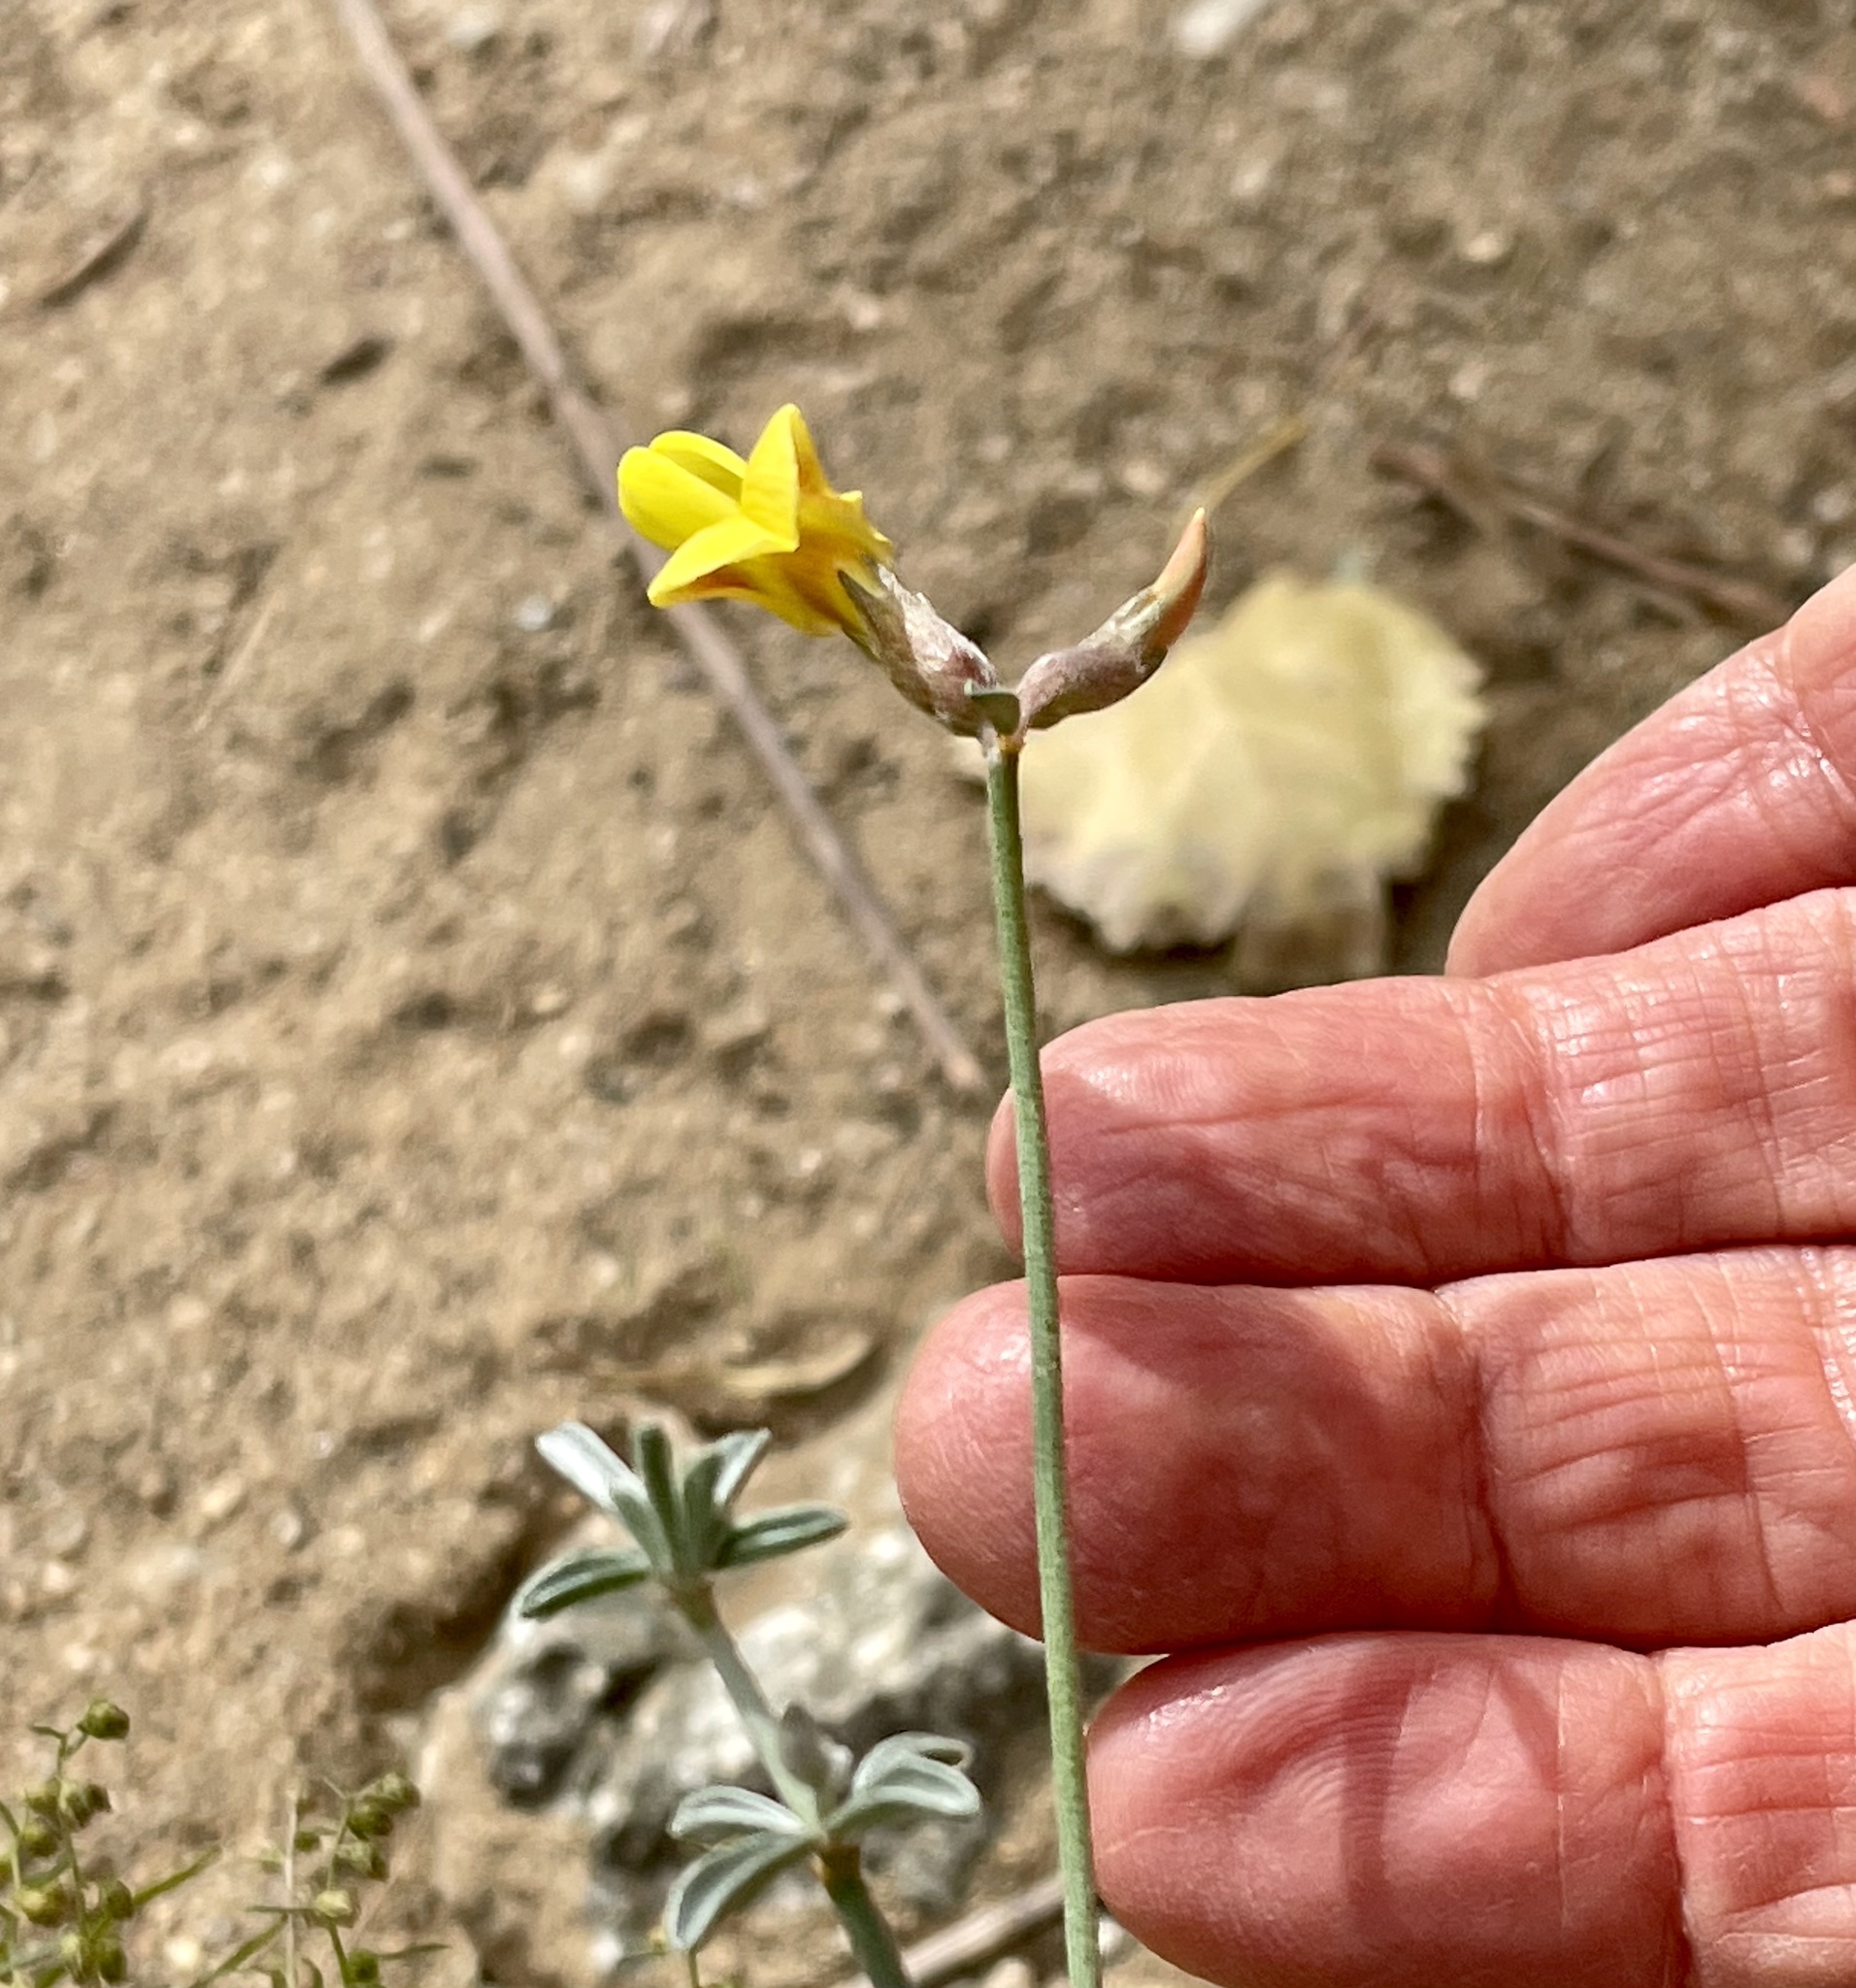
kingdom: Plantae
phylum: Tracheophyta
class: Magnoliopsida
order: Fabales
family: Fabaceae
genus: Acmispon
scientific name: Acmispon rigidus
